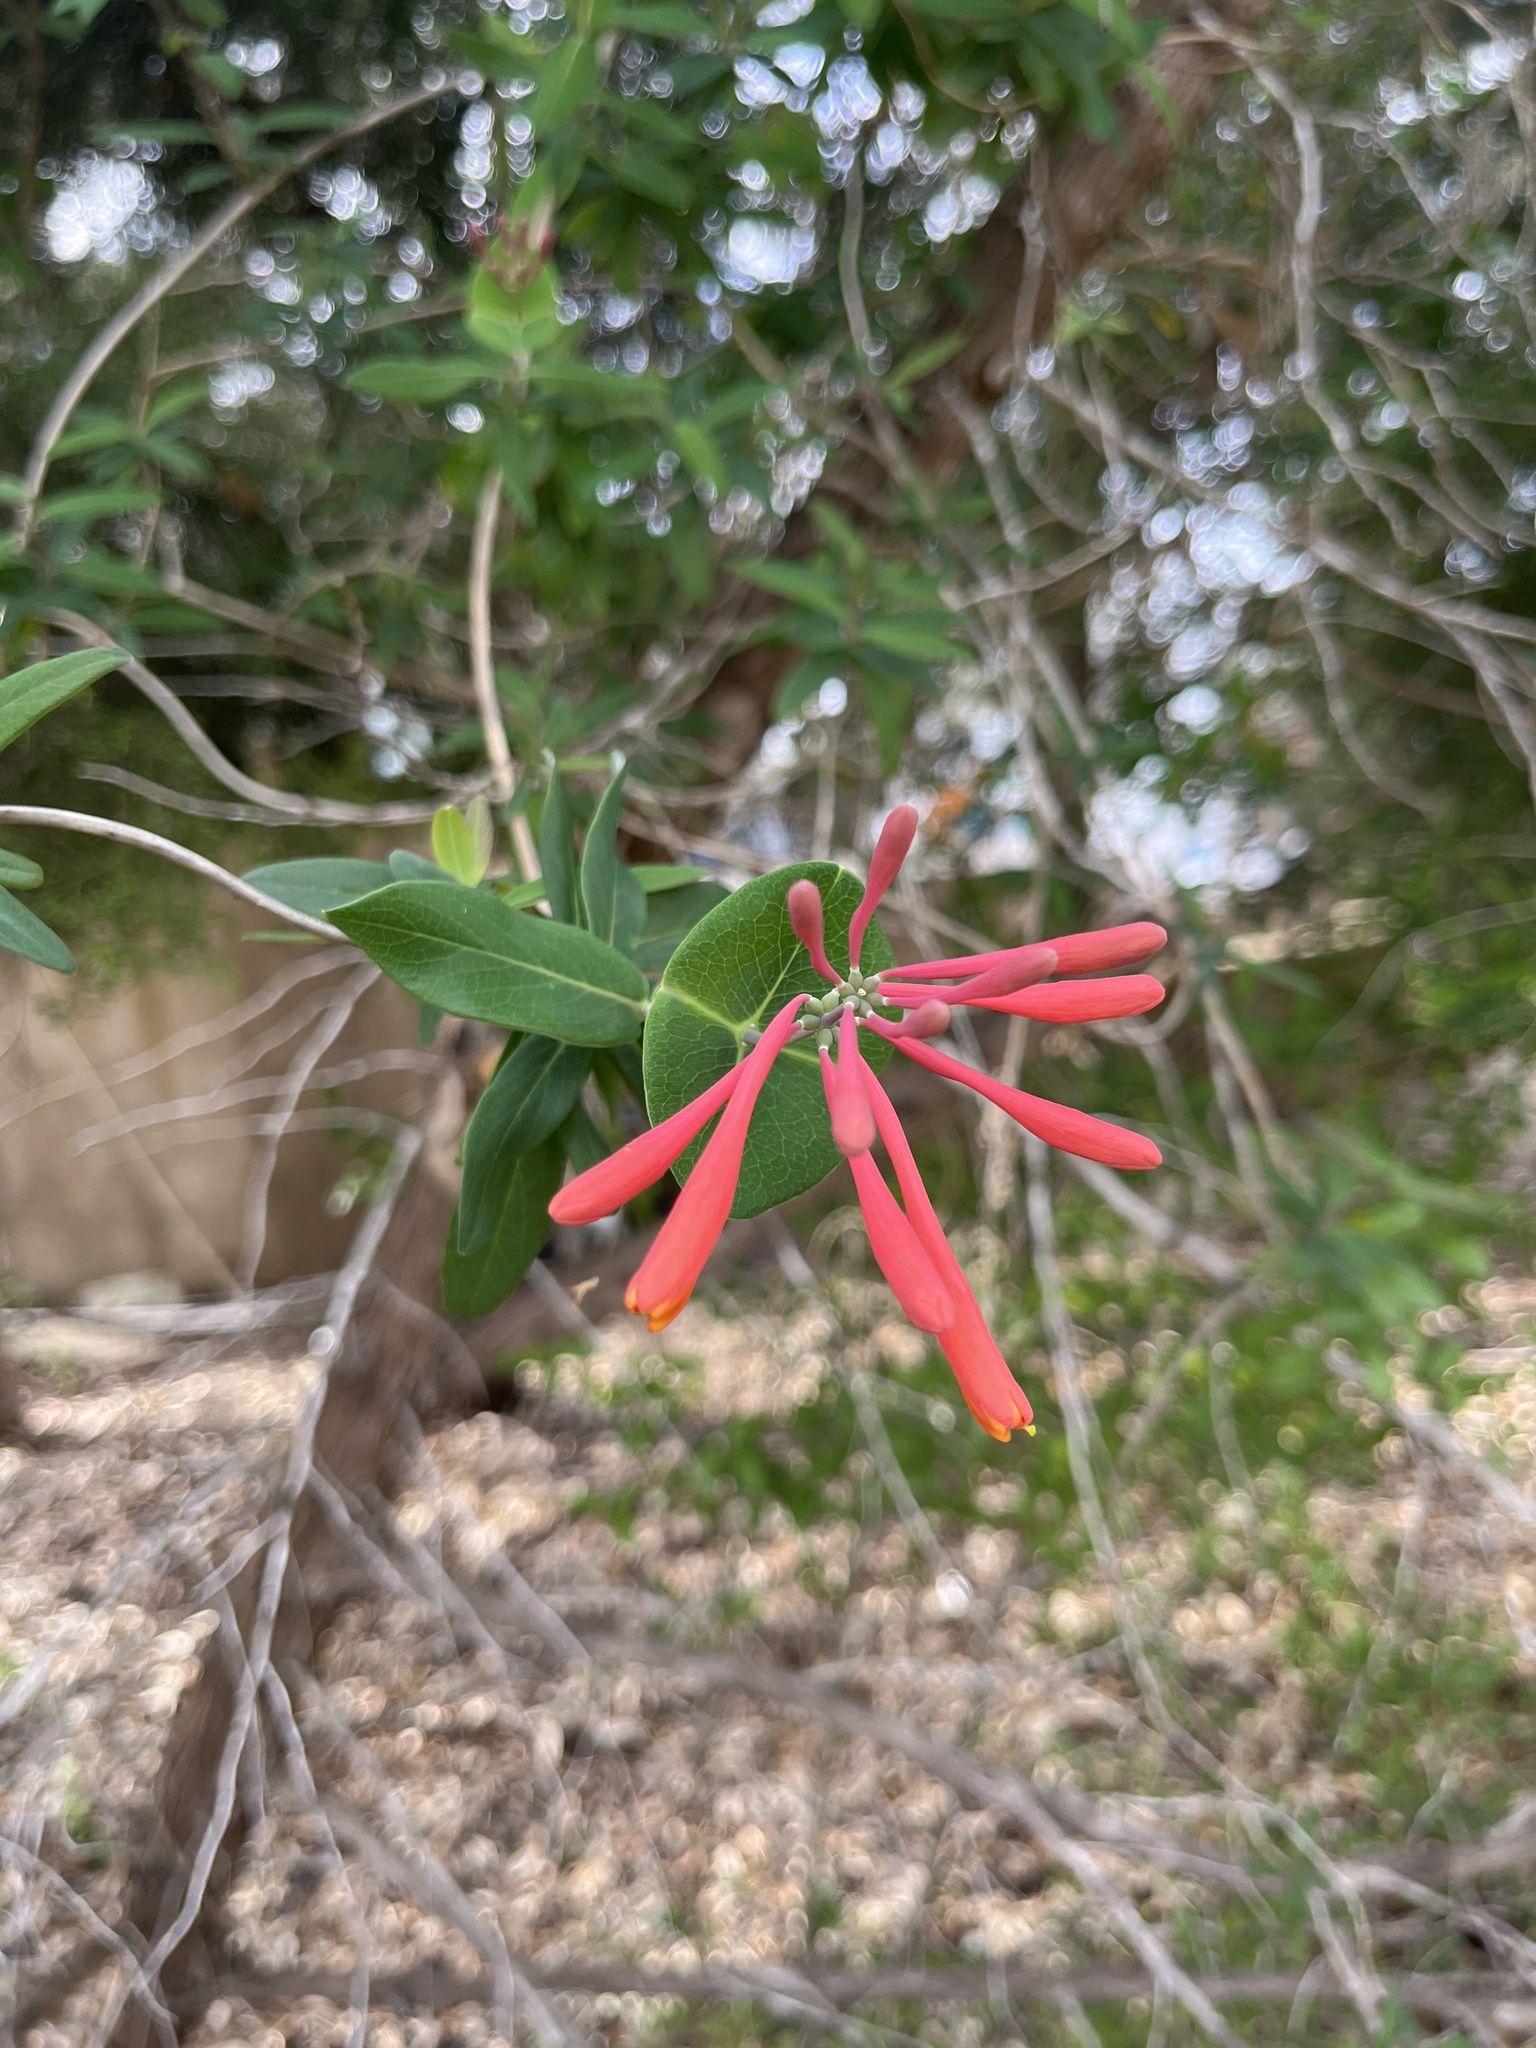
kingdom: Plantae
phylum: Tracheophyta
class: Magnoliopsida
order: Dipsacales
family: Caprifoliaceae
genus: Lonicera
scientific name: Lonicera sempervirens
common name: Coral honeysuckle
